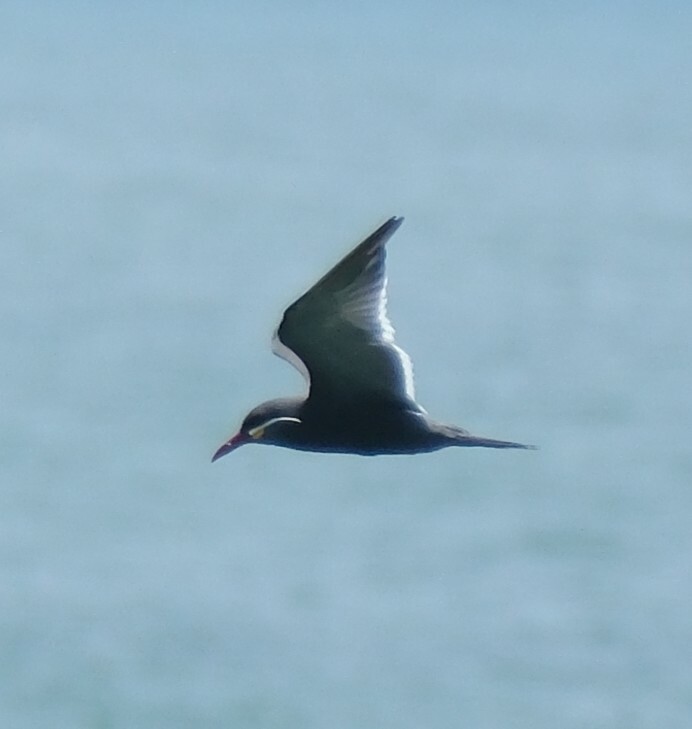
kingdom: Animalia
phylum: Chordata
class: Aves
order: Charadriiformes
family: Laridae
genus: Larosterna
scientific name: Larosterna inca
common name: Inca tern
